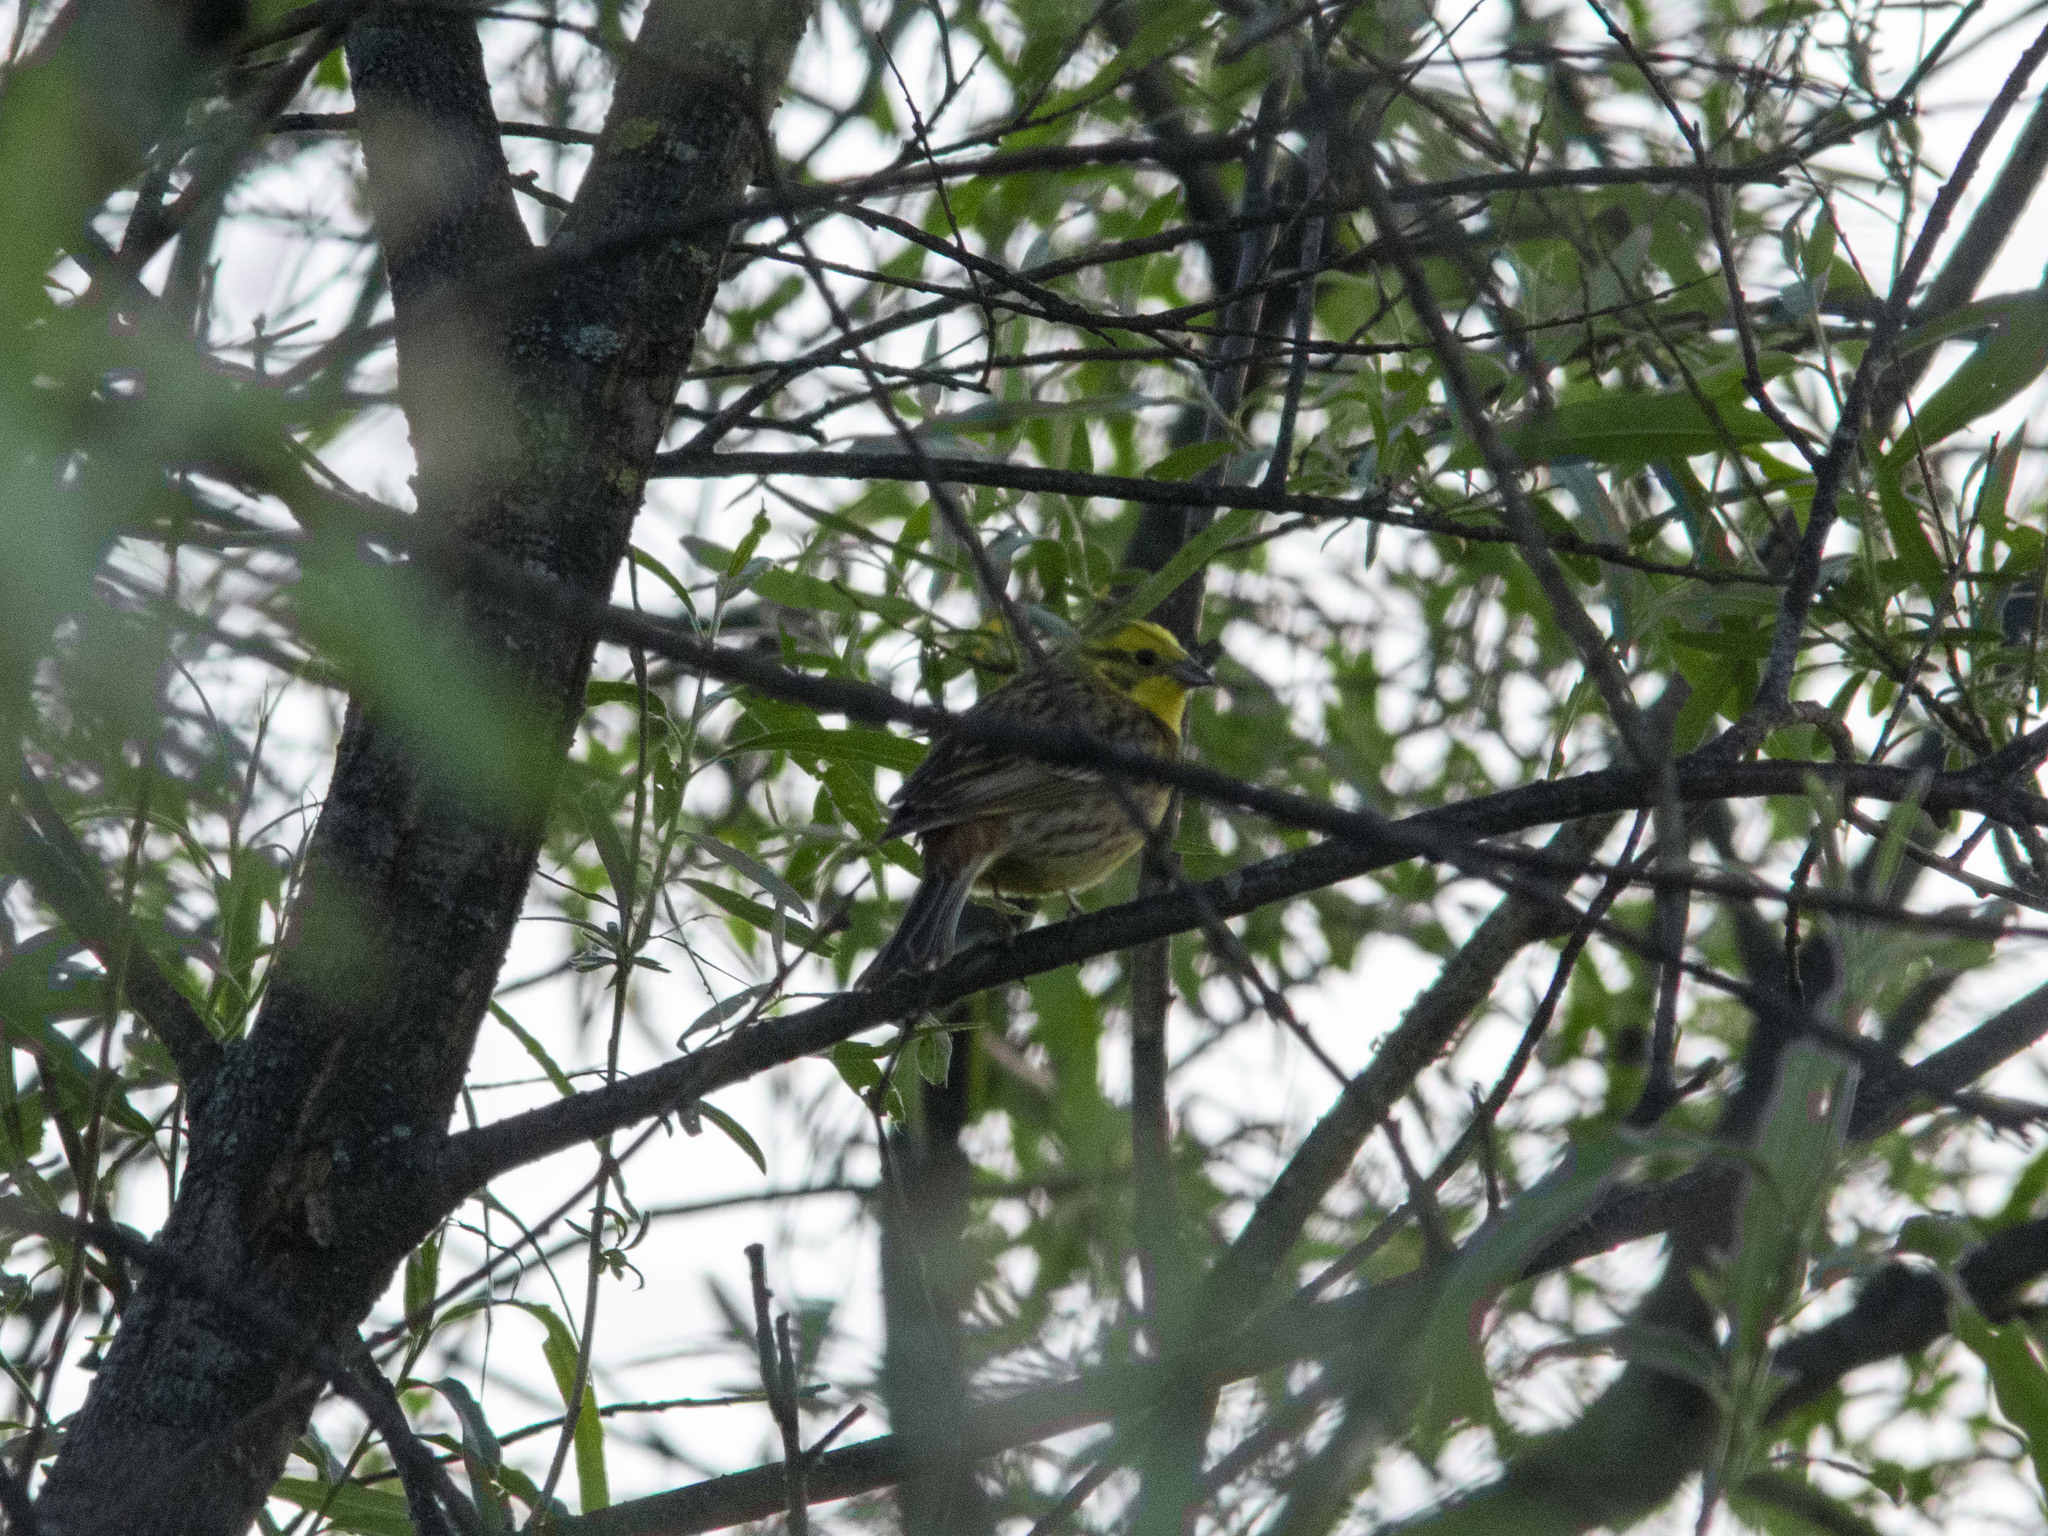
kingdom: Animalia
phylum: Chordata
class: Aves
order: Passeriformes
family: Emberizidae
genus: Emberiza
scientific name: Emberiza citrinella
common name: Yellowhammer
